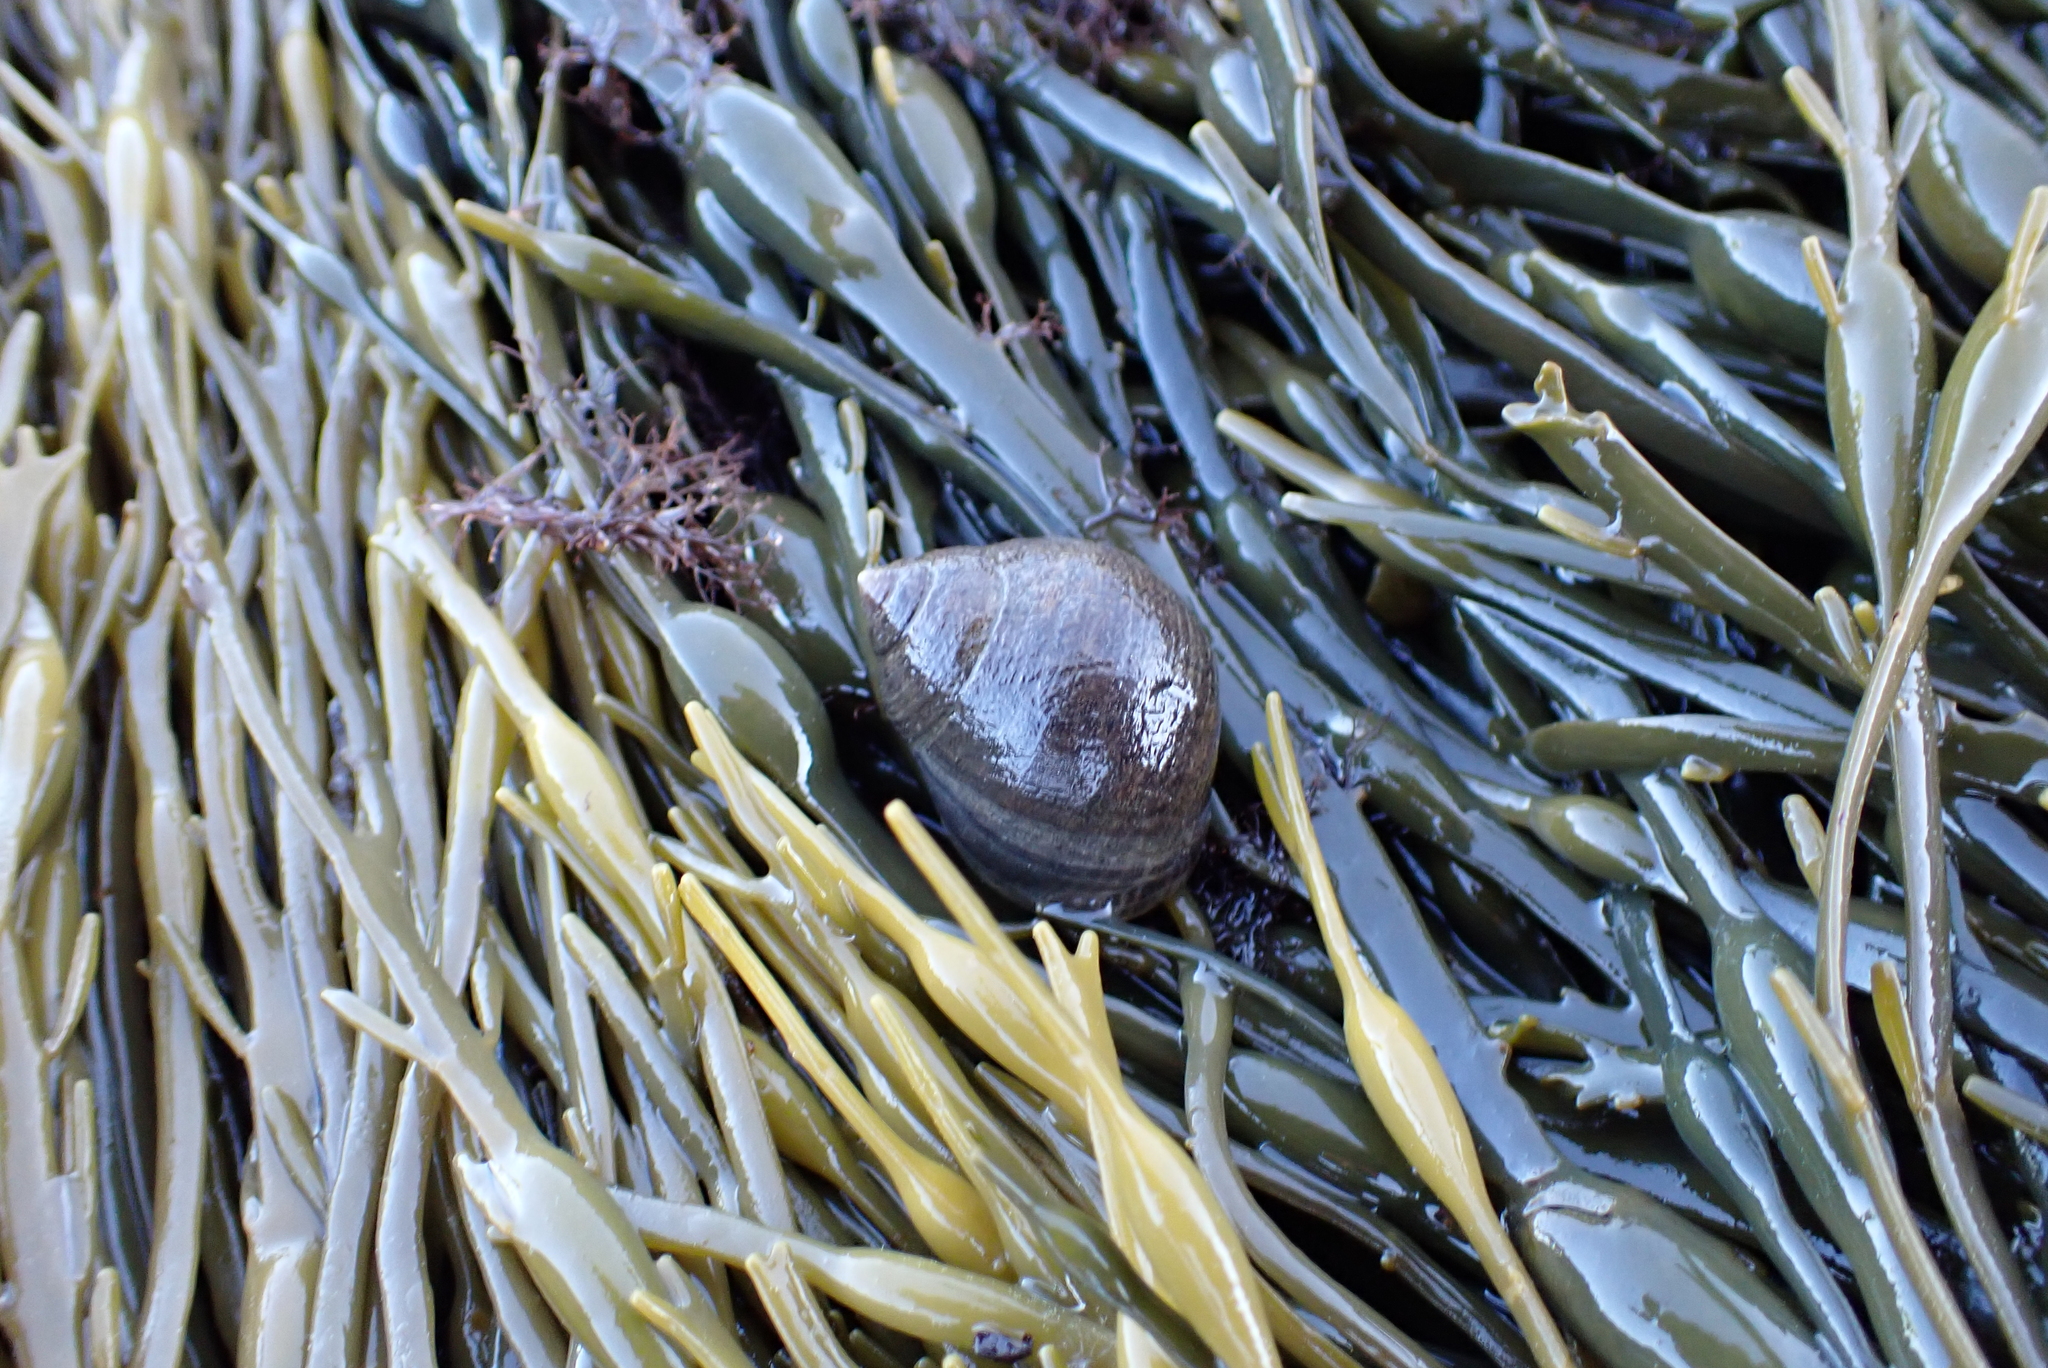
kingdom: Animalia
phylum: Mollusca
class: Gastropoda
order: Littorinimorpha
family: Littorinidae
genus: Littorina
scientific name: Littorina littorea
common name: Common periwinkle
